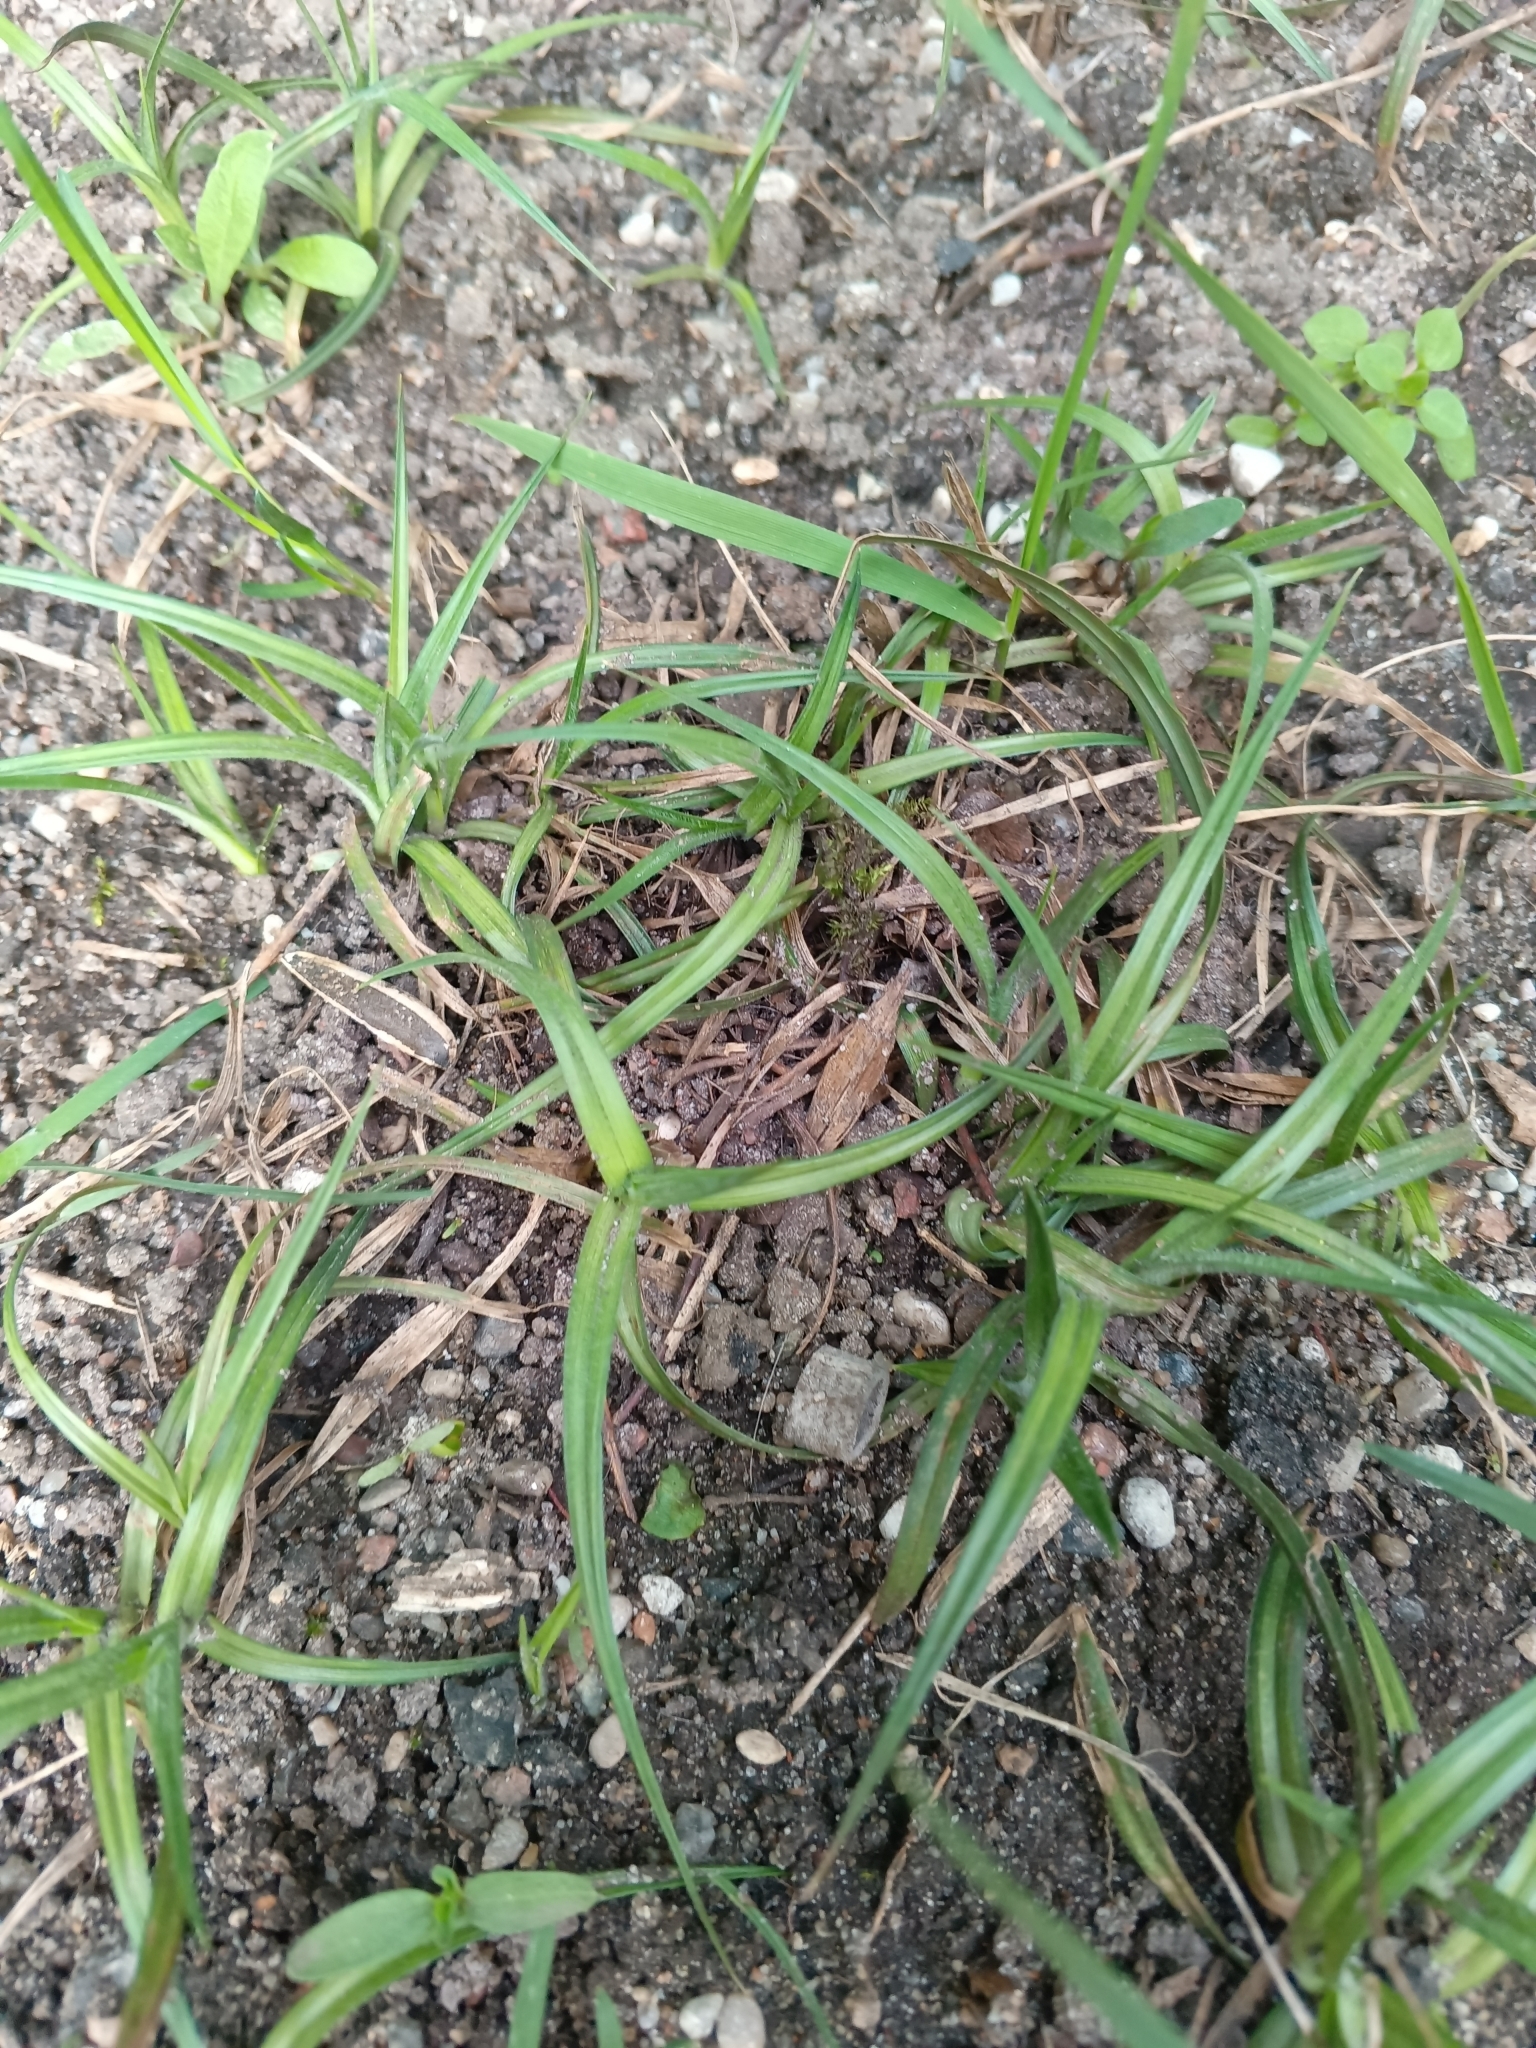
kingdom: Plantae
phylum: Tracheophyta
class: Liliopsida
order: Poales
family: Cyperaceae
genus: Carex
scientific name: Carex hirta
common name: Hairy sedge
